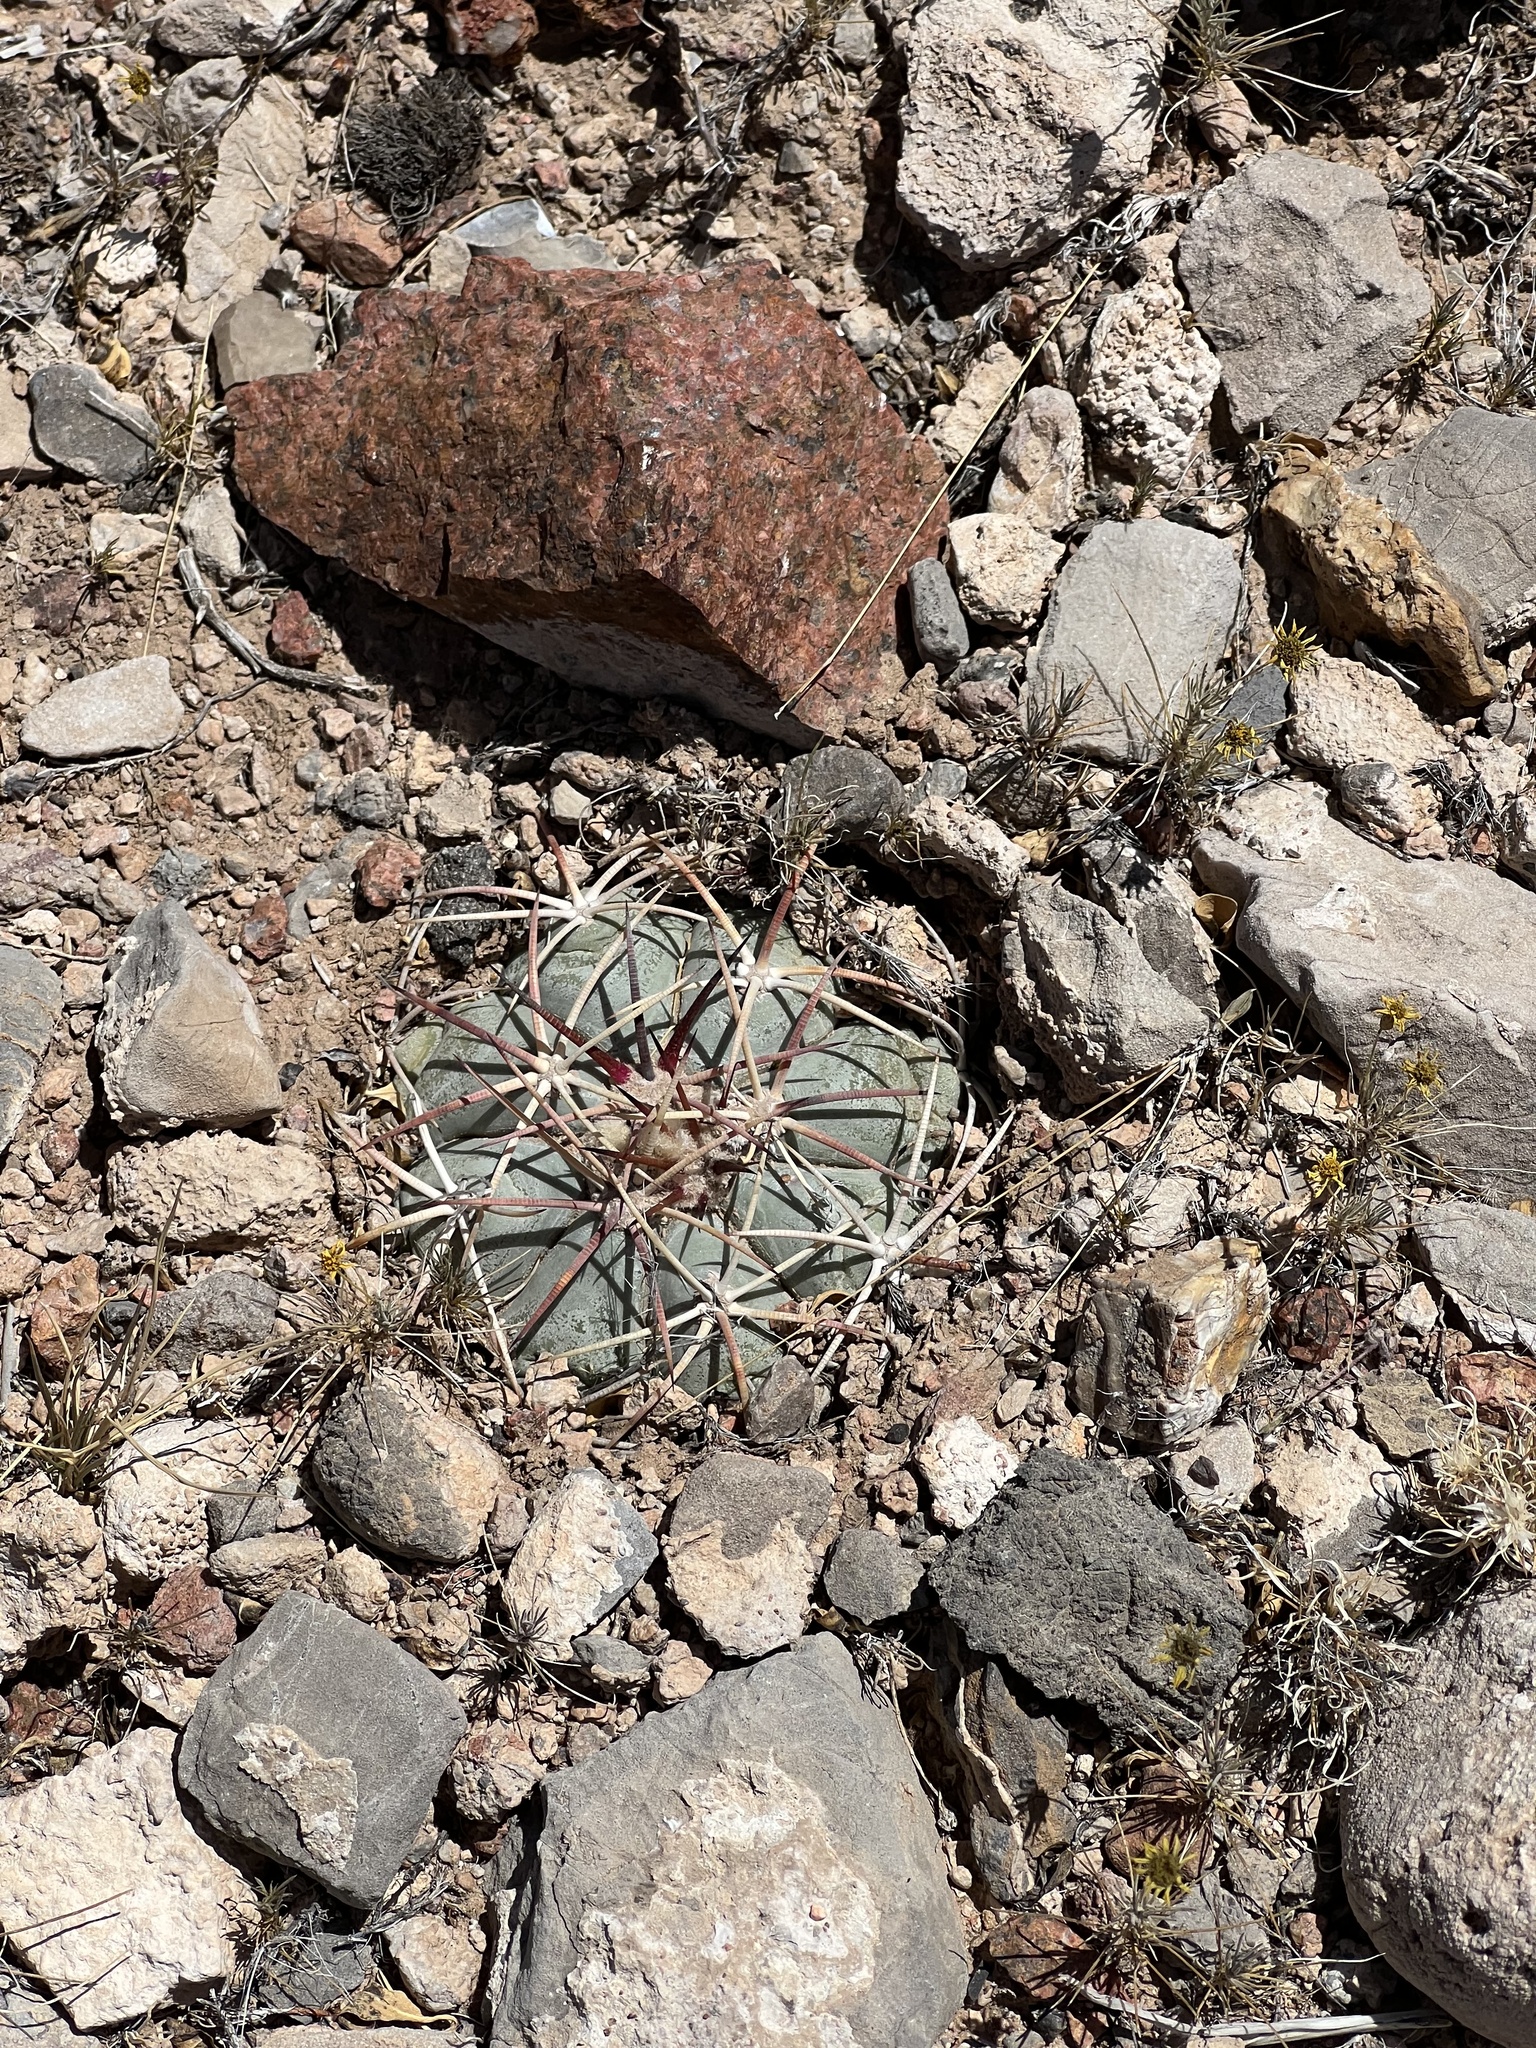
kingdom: Plantae
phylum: Tracheophyta
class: Magnoliopsida
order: Caryophyllales
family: Cactaceae
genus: Echinocactus
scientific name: Echinocactus horizonthalonius
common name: Devilshead
